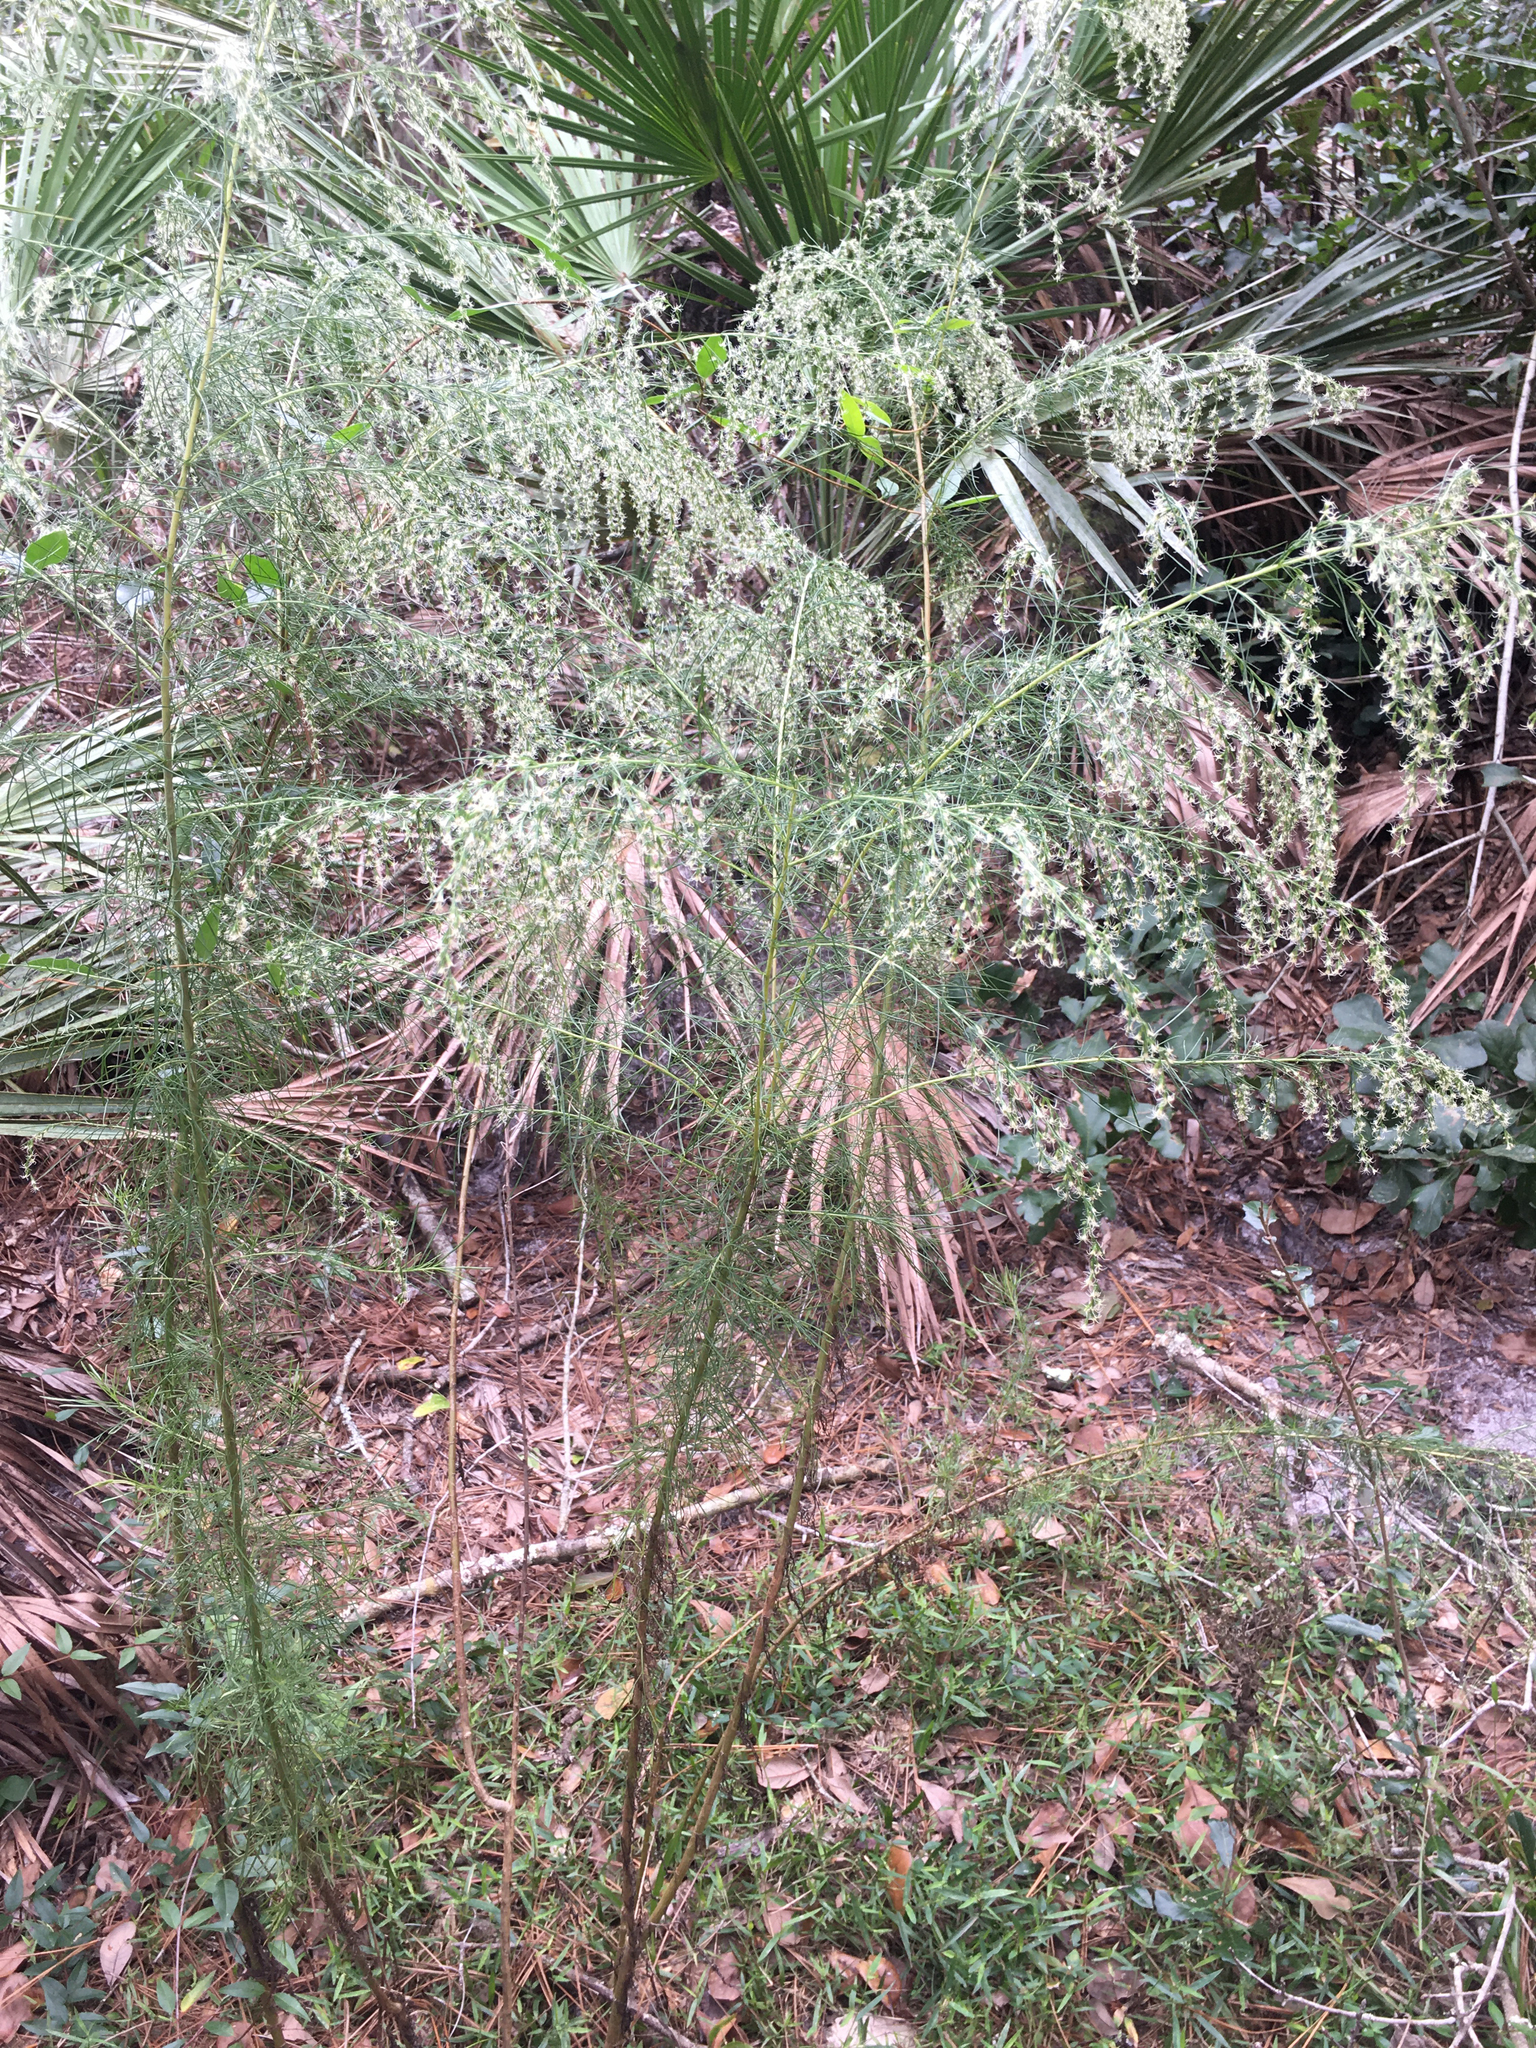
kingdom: Plantae
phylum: Tracheophyta
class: Magnoliopsida
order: Asterales
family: Asteraceae
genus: Eupatorium
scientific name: Eupatorium capillifolium
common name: Dog-fennel
